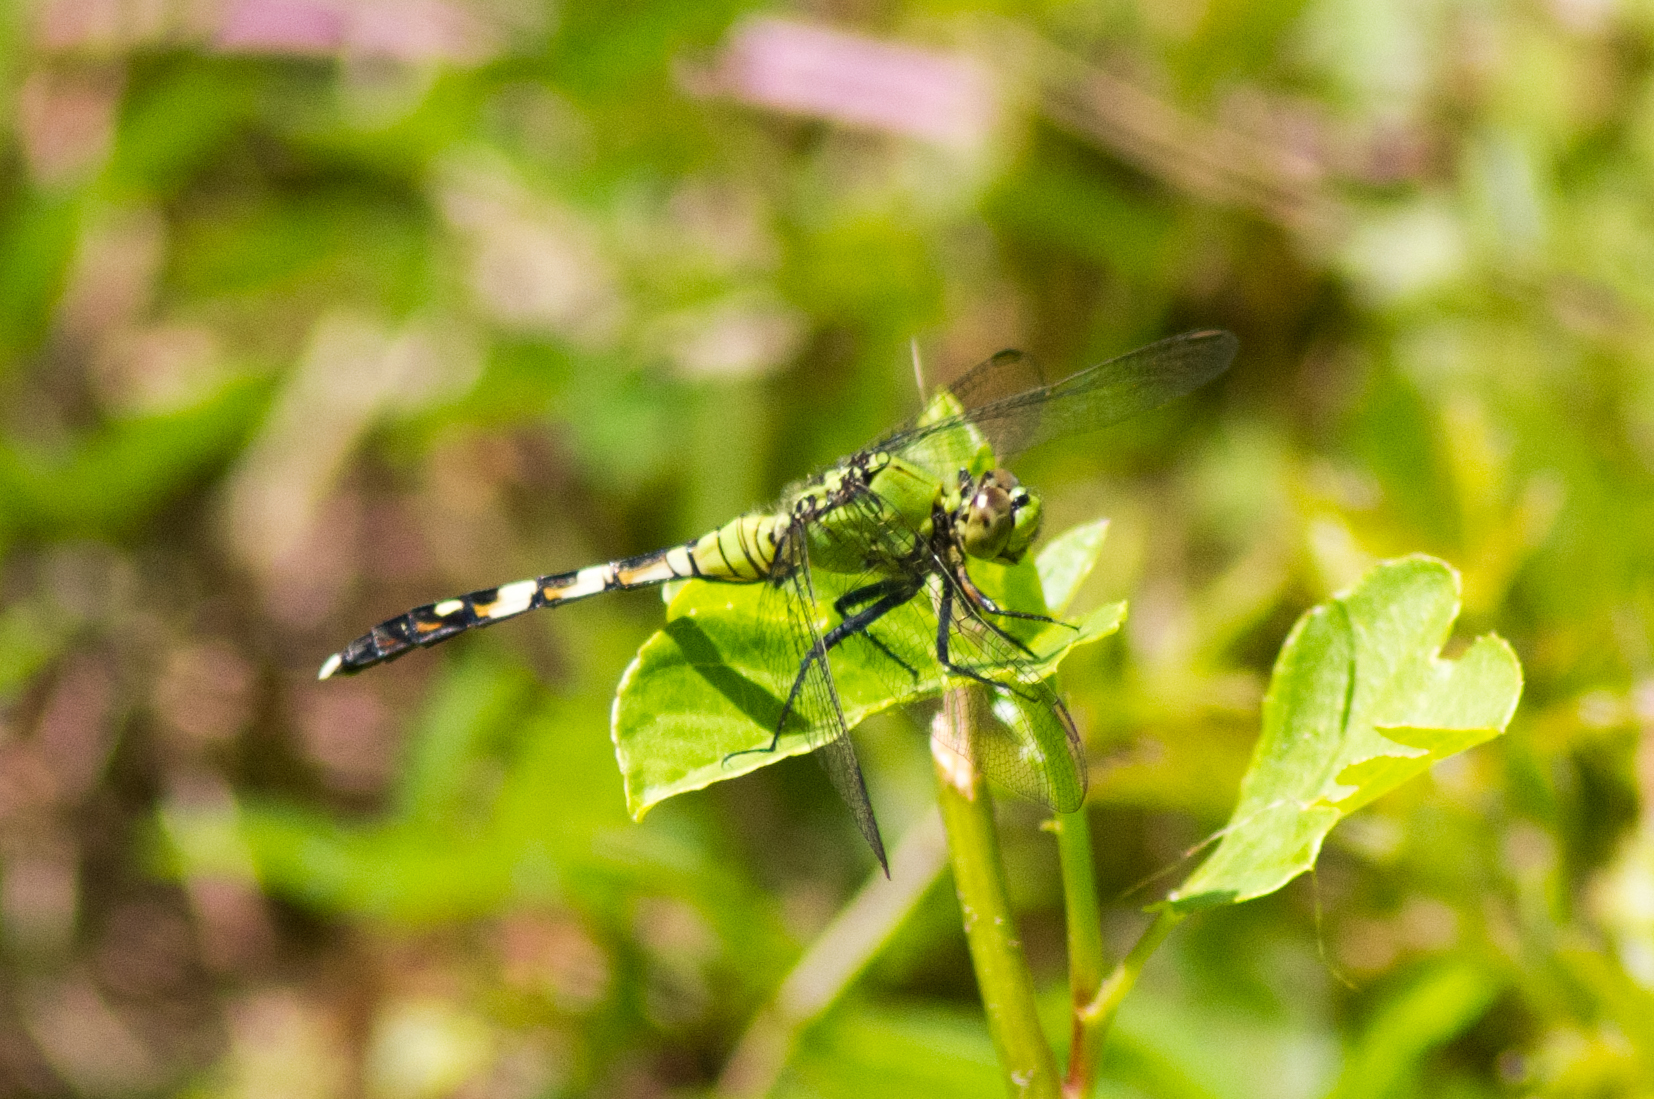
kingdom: Animalia
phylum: Arthropoda
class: Insecta
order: Odonata
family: Libellulidae
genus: Erythemis
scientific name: Erythemis simplicicollis
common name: Eastern pondhawk
